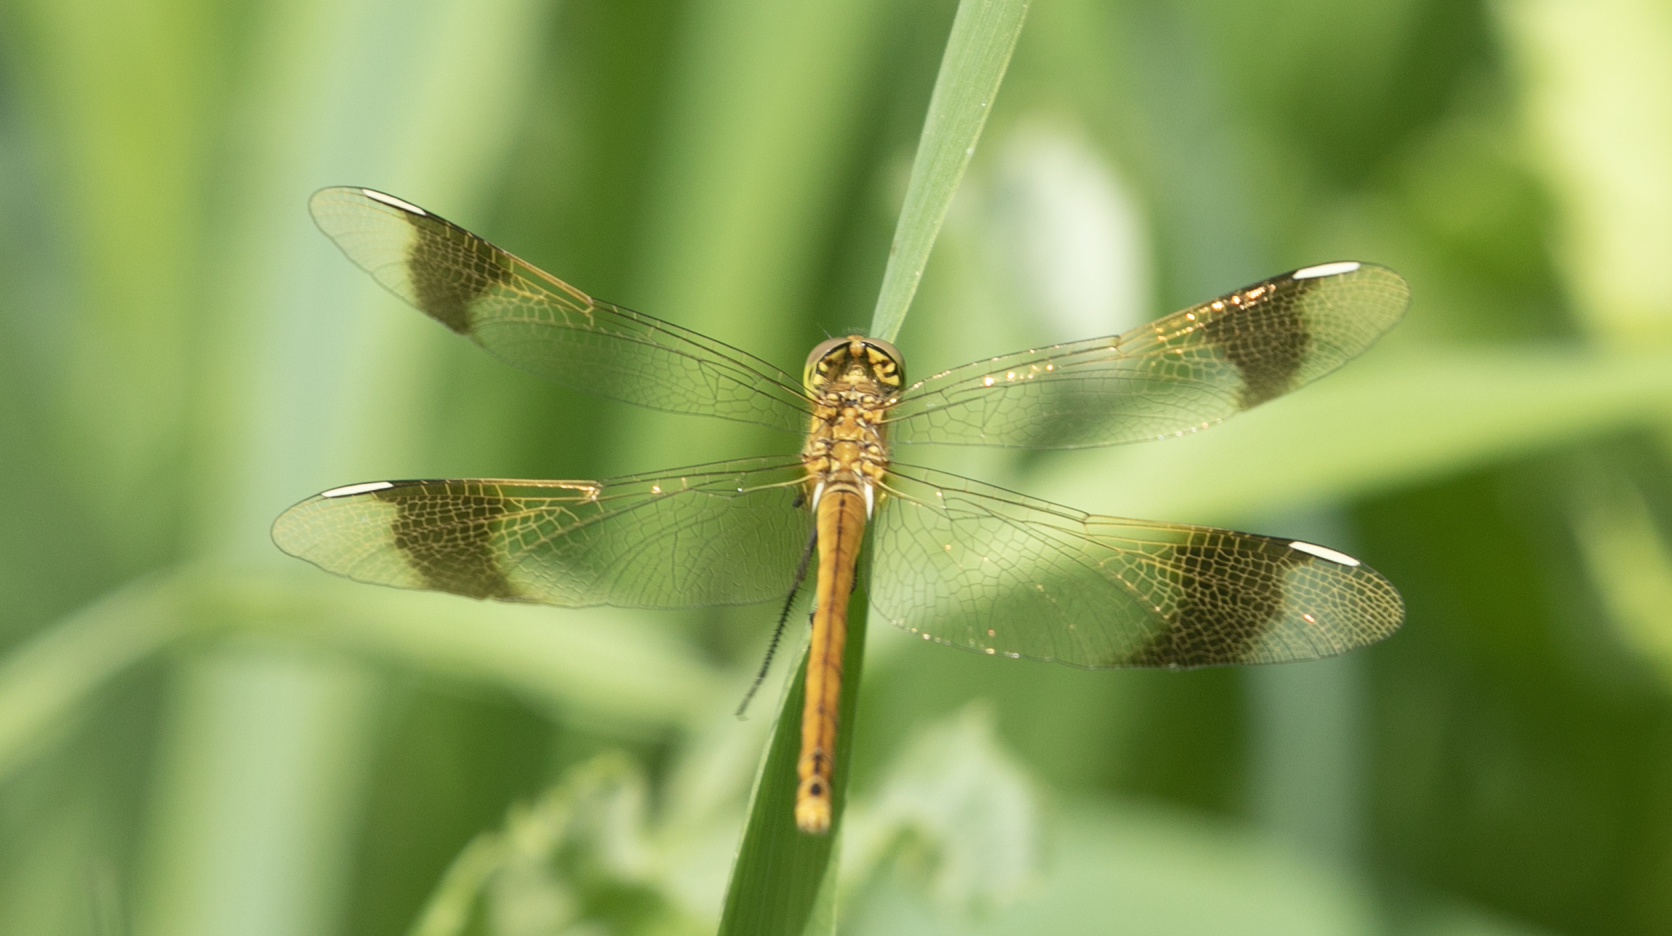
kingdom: Animalia
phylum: Arthropoda
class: Insecta
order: Odonata
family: Libellulidae
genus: Sympetrum
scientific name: Sympetrum pedemontanum
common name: Banded darter
